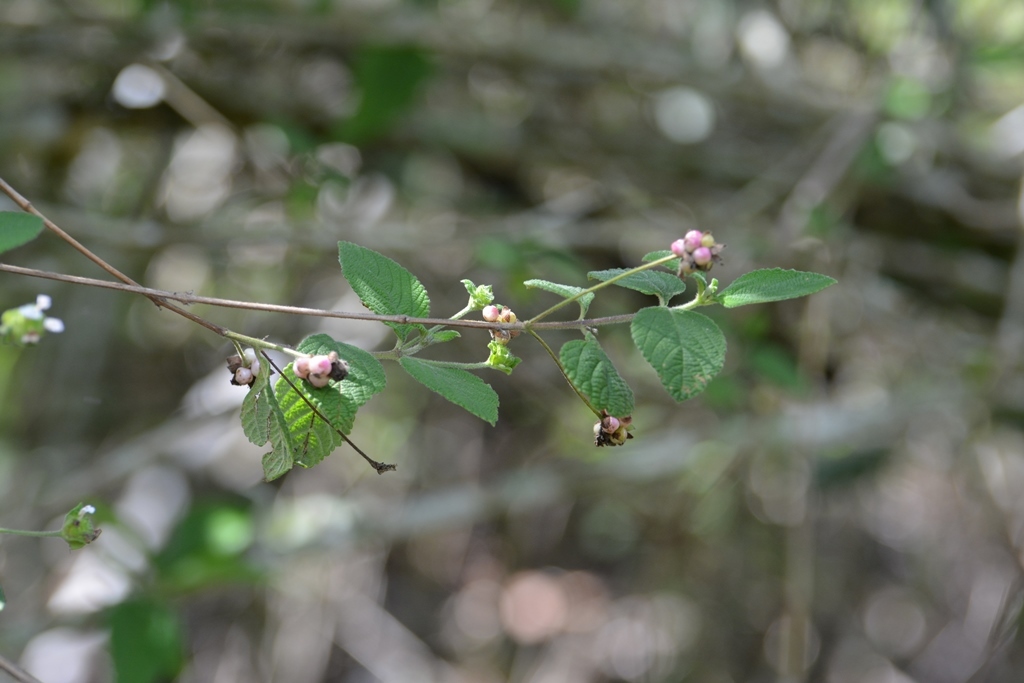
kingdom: Plantae
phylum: Tracheophyta
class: Magnoliopsida
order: Lamiales
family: Verbenaceae
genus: Lantana
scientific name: Lantana involucrata
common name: Black sage
